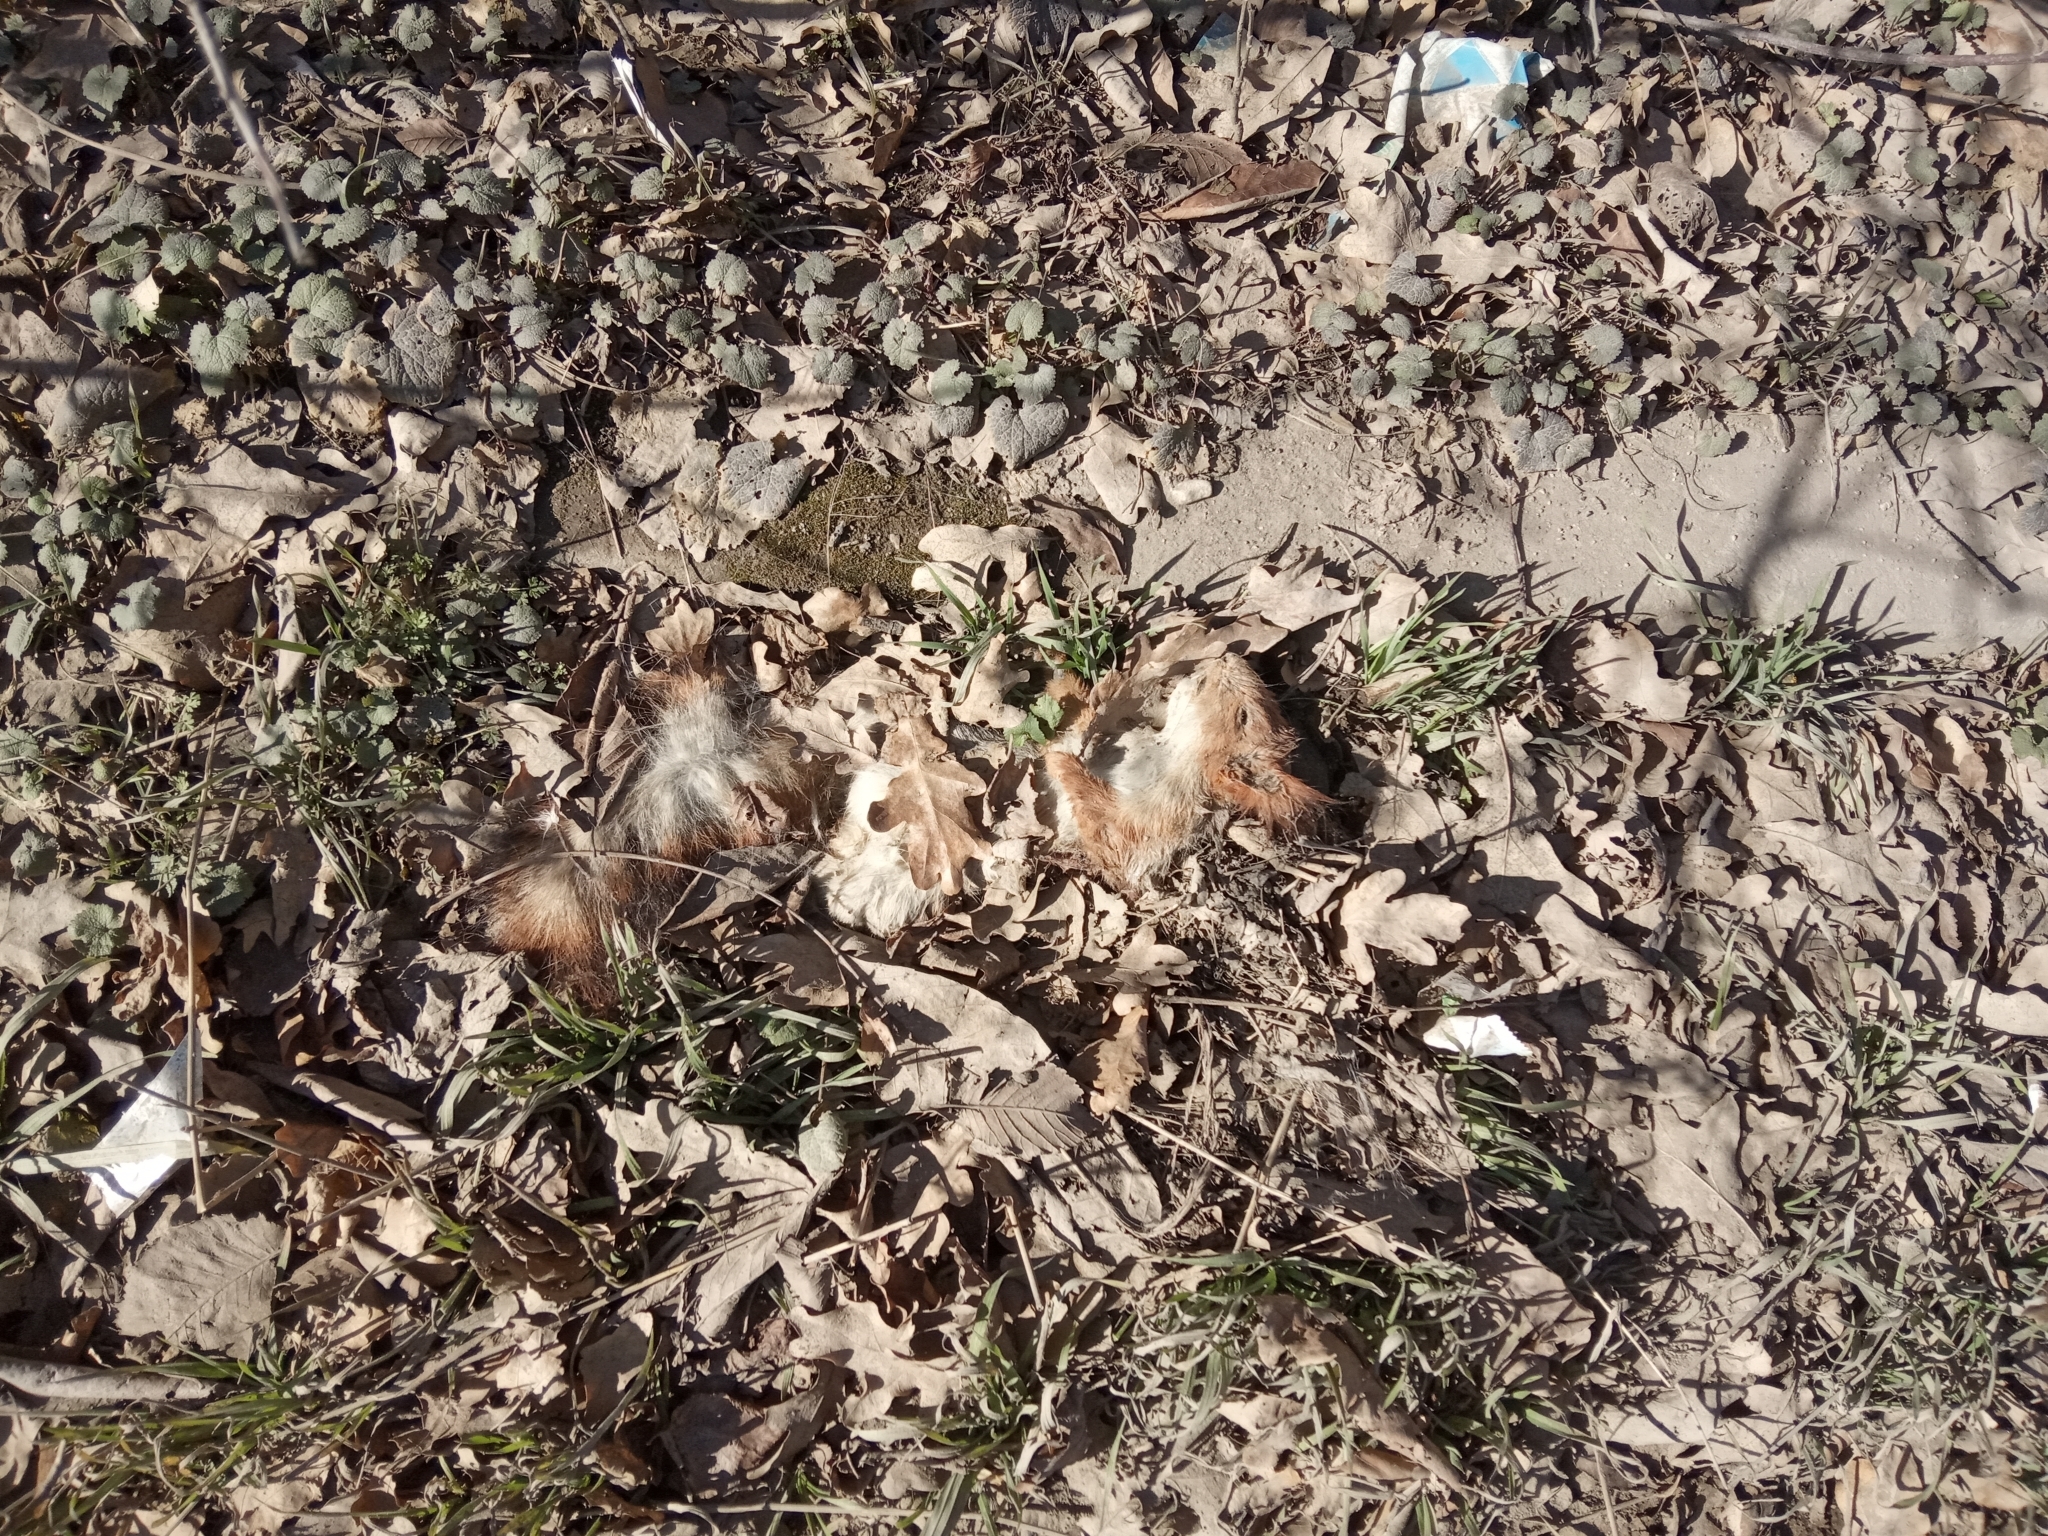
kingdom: Animalia
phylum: Chordata
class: Mammalia
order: Rodentia
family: Sciuridae
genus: Sciurus
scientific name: Sciurus vulgaris
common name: Eurasian red squirrel
